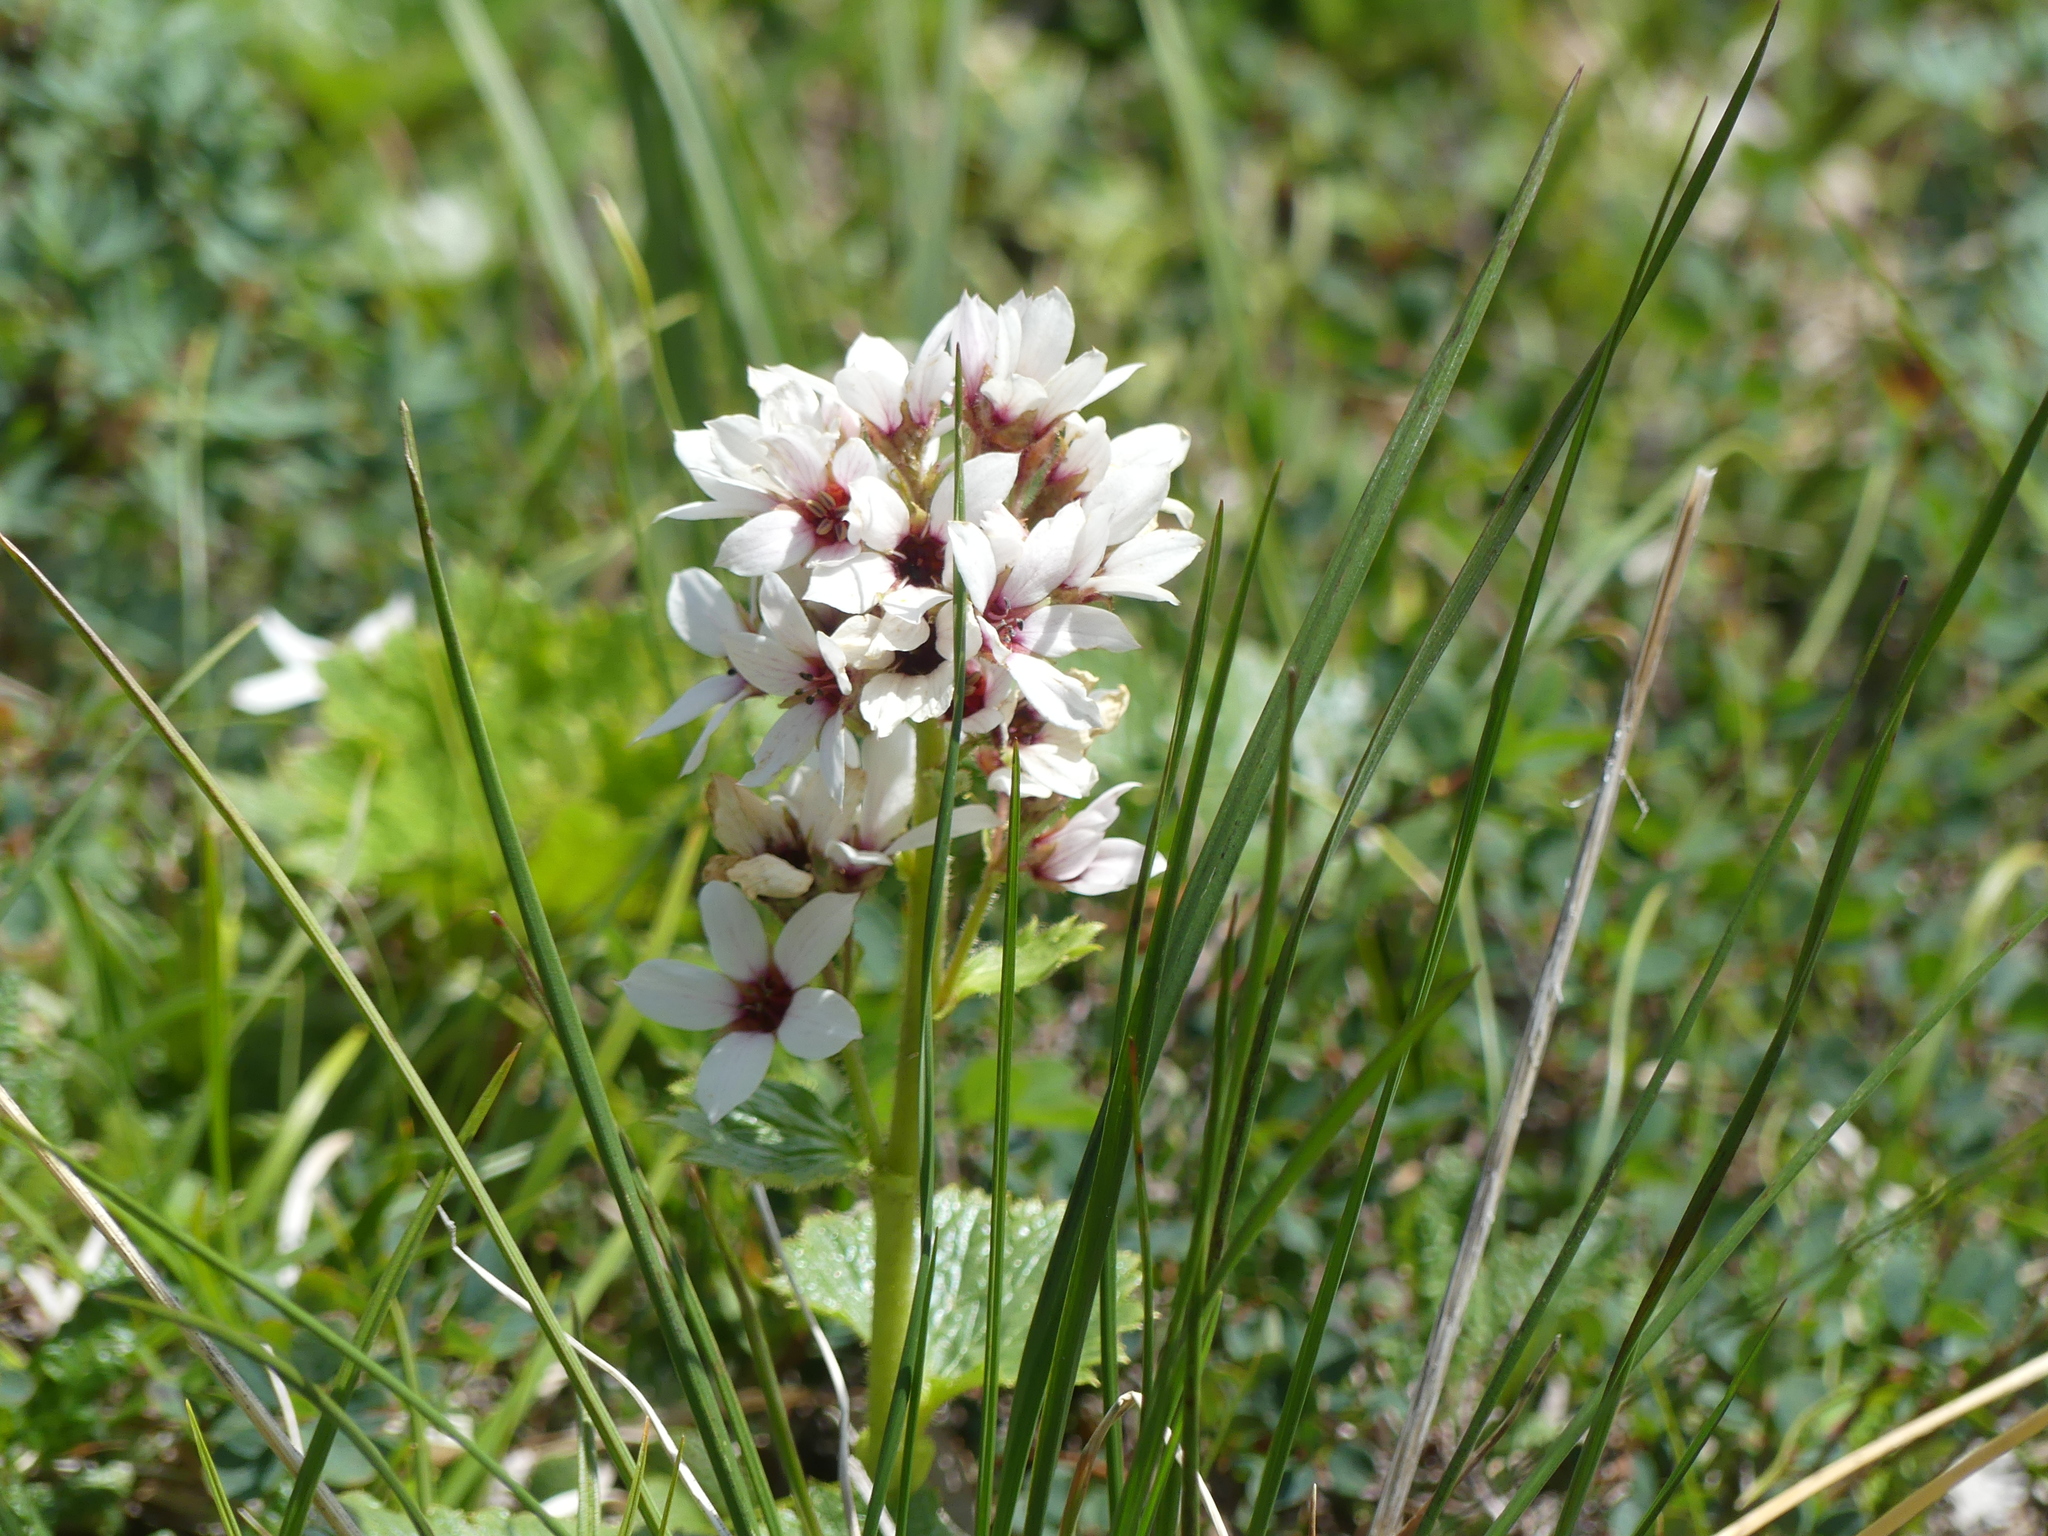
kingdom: Plantae
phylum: Tracheophyta
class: Magnoliopsida
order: Saxifragales
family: Saxifragaceae
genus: Boykinia
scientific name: Boykinia richardsonii
